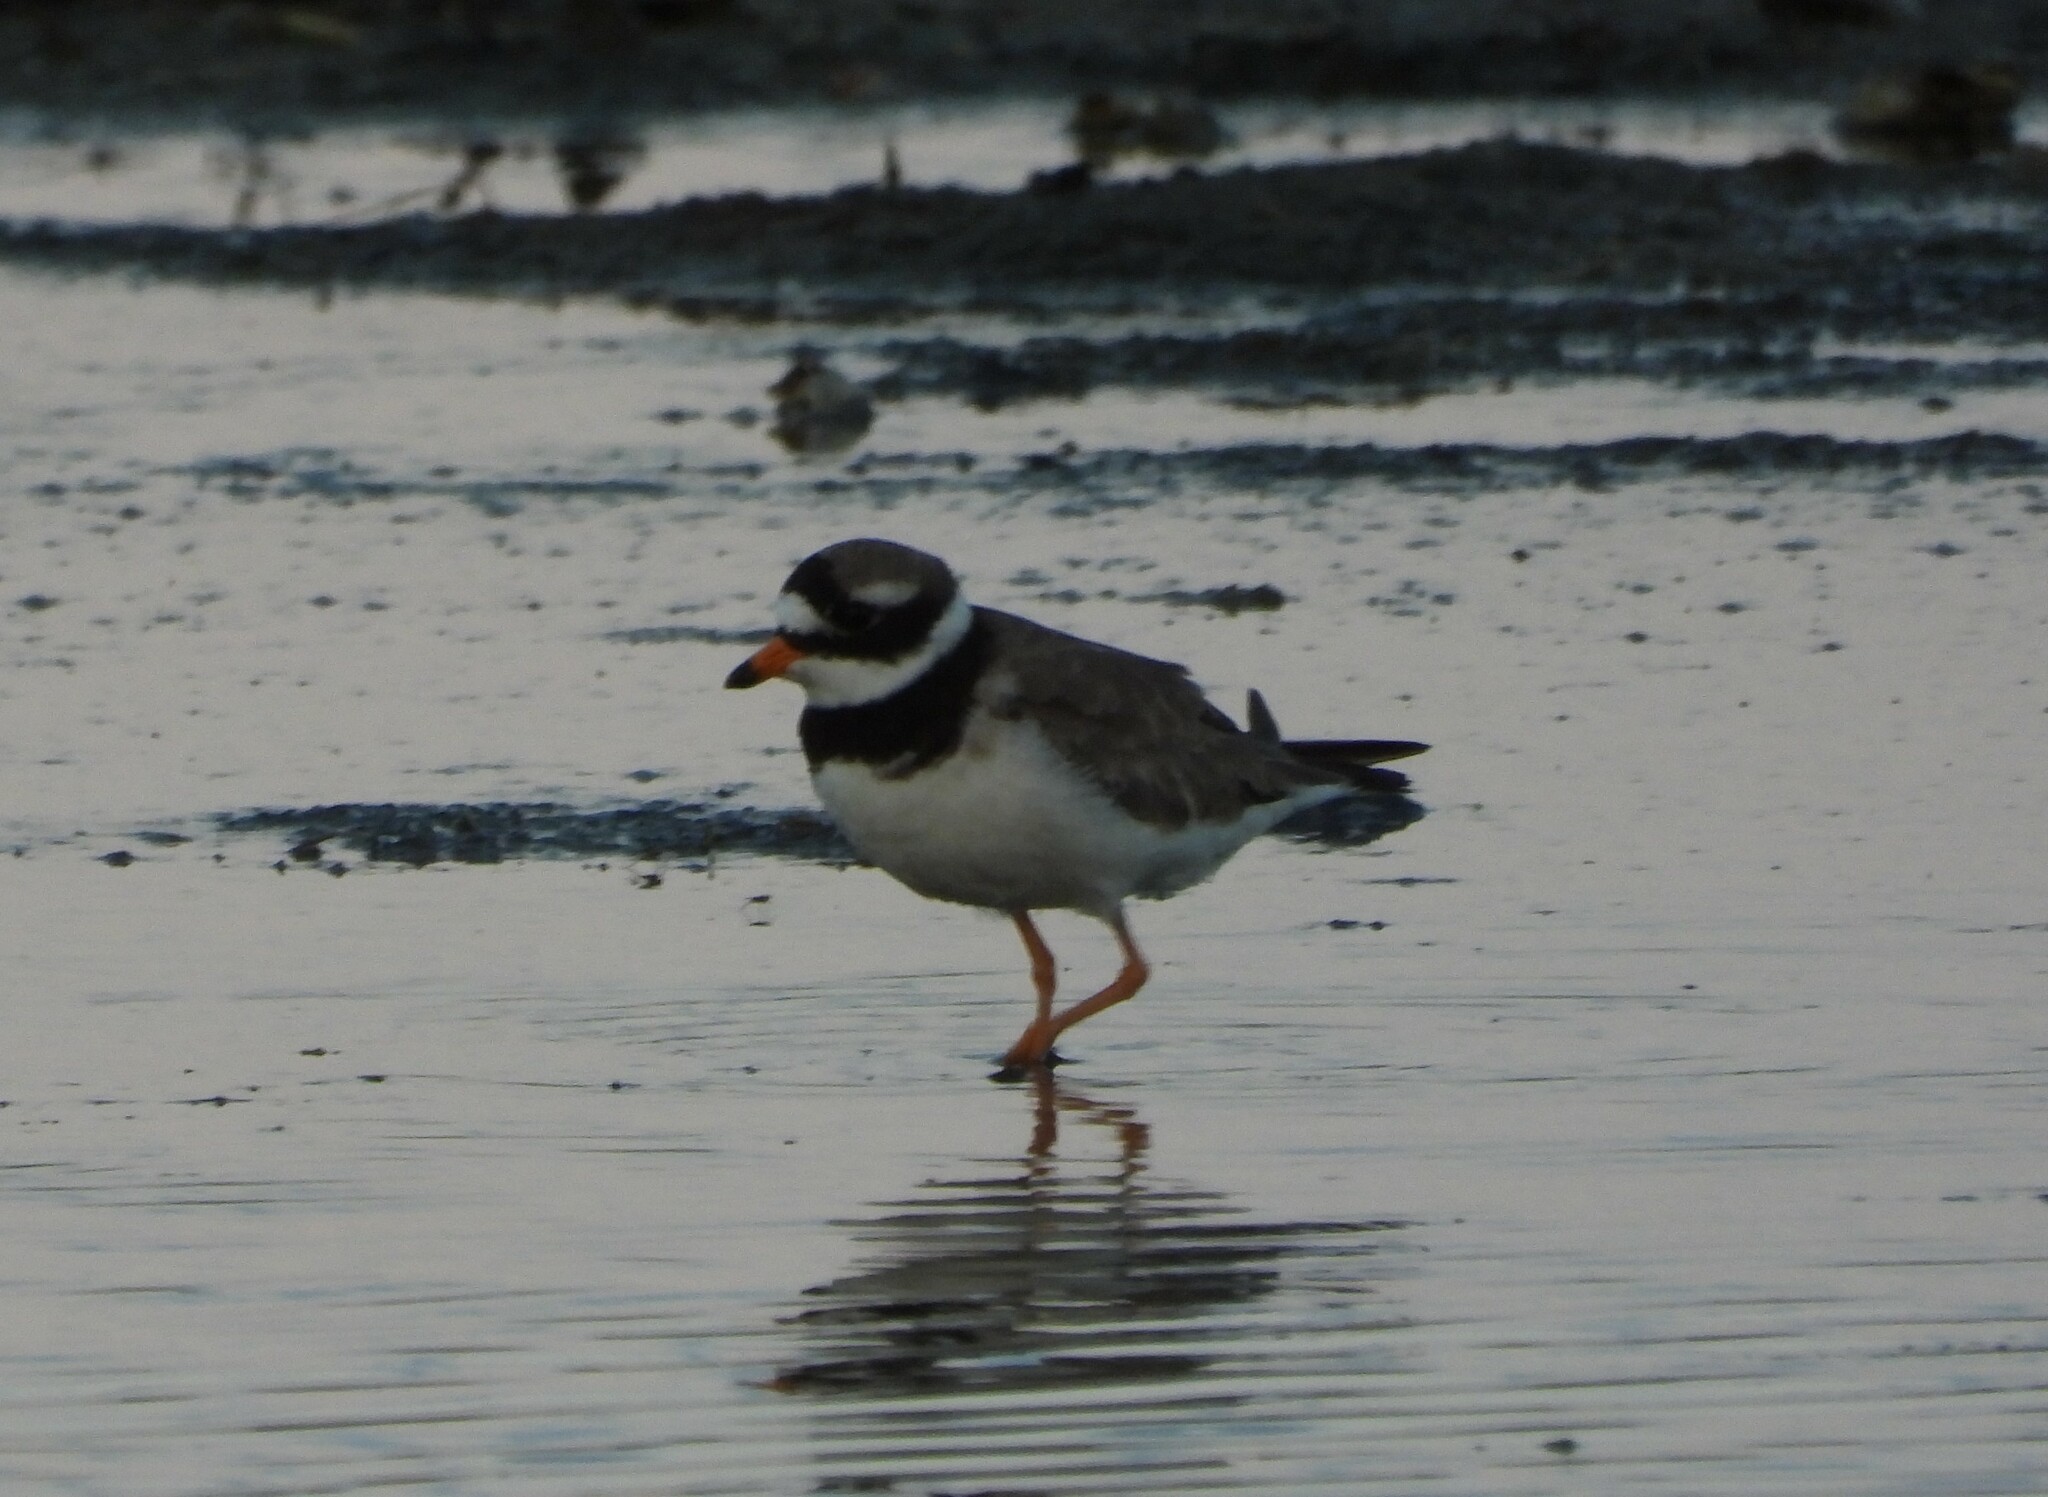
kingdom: Animalia
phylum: Chordata
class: Aves
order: Charadriiformes
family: Charadriidae
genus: Charadrius
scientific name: Charadrius hiaticula
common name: Common ringed plover
